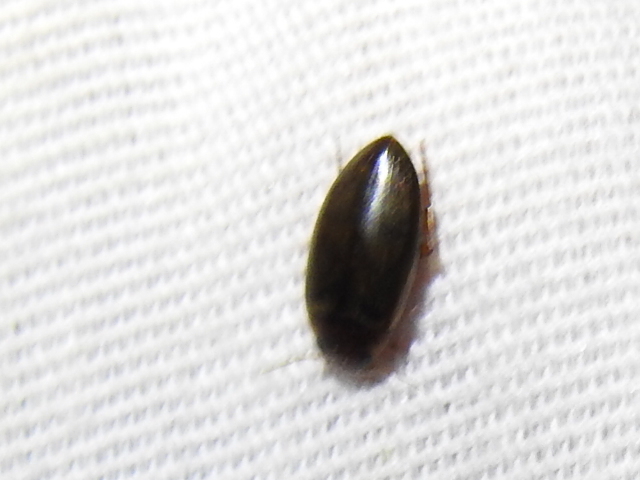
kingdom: Animalia
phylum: Arthropoda
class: Insecta
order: Coleoptera
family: Dytiscidae
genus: Copelatus
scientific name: Copelatus chevrolati
